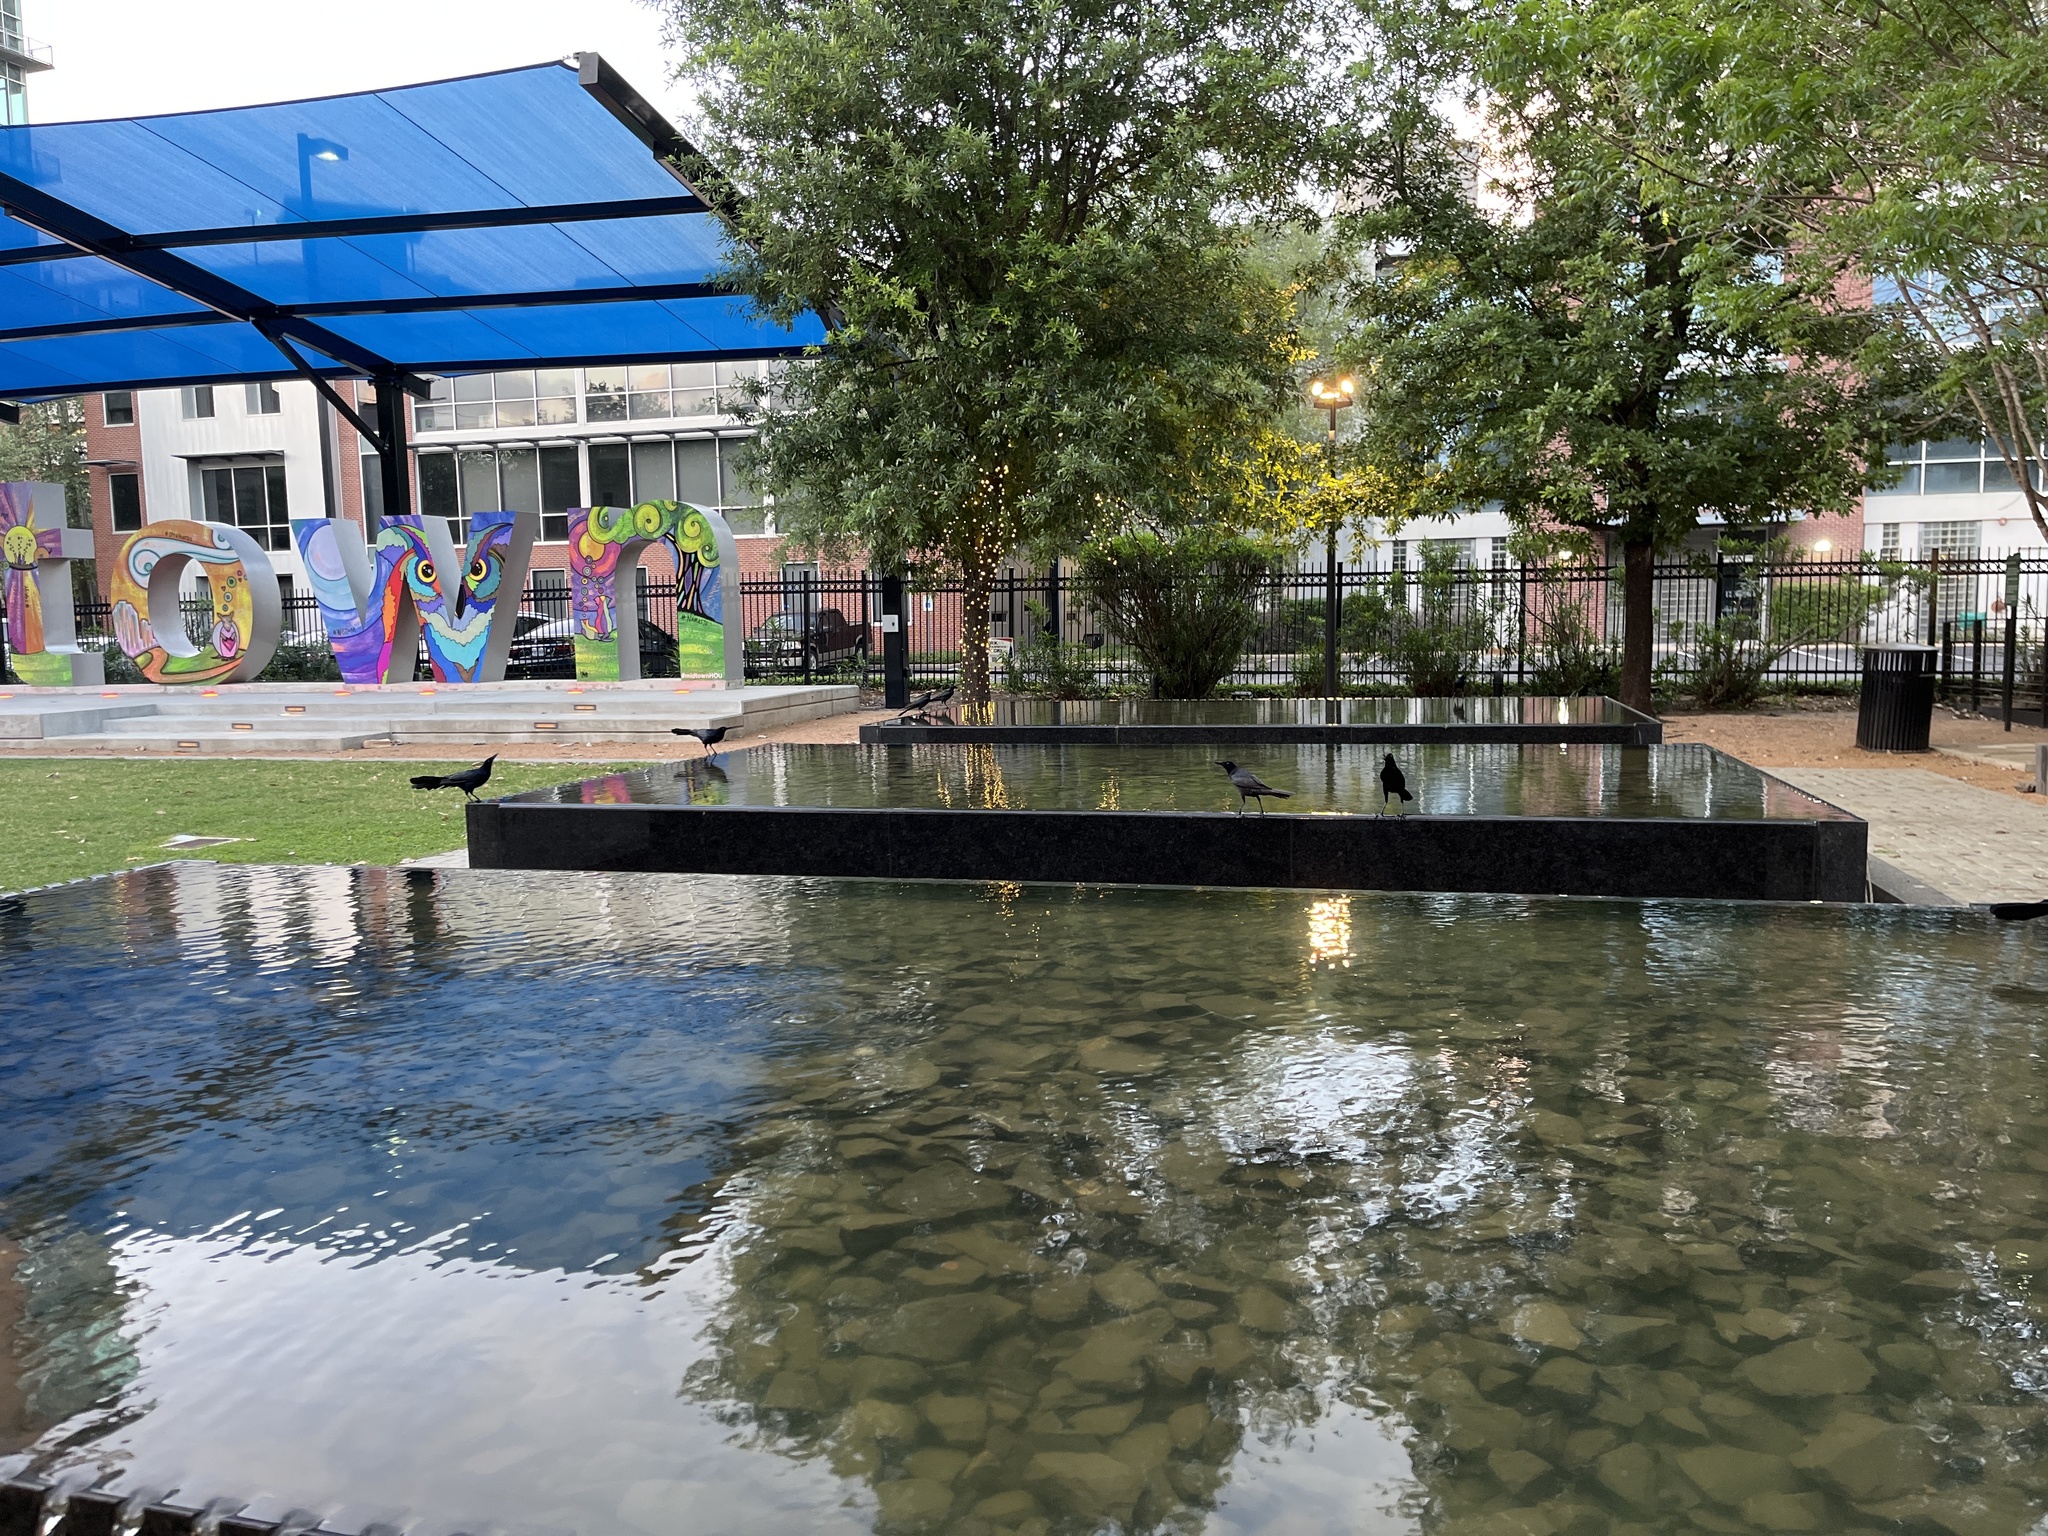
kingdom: Animalia
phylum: Chordata
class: Aves
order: Passeriformes
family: Icteridae
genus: Quiscalus
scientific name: Quiscalus mexicanus
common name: Great-tailed grackle
